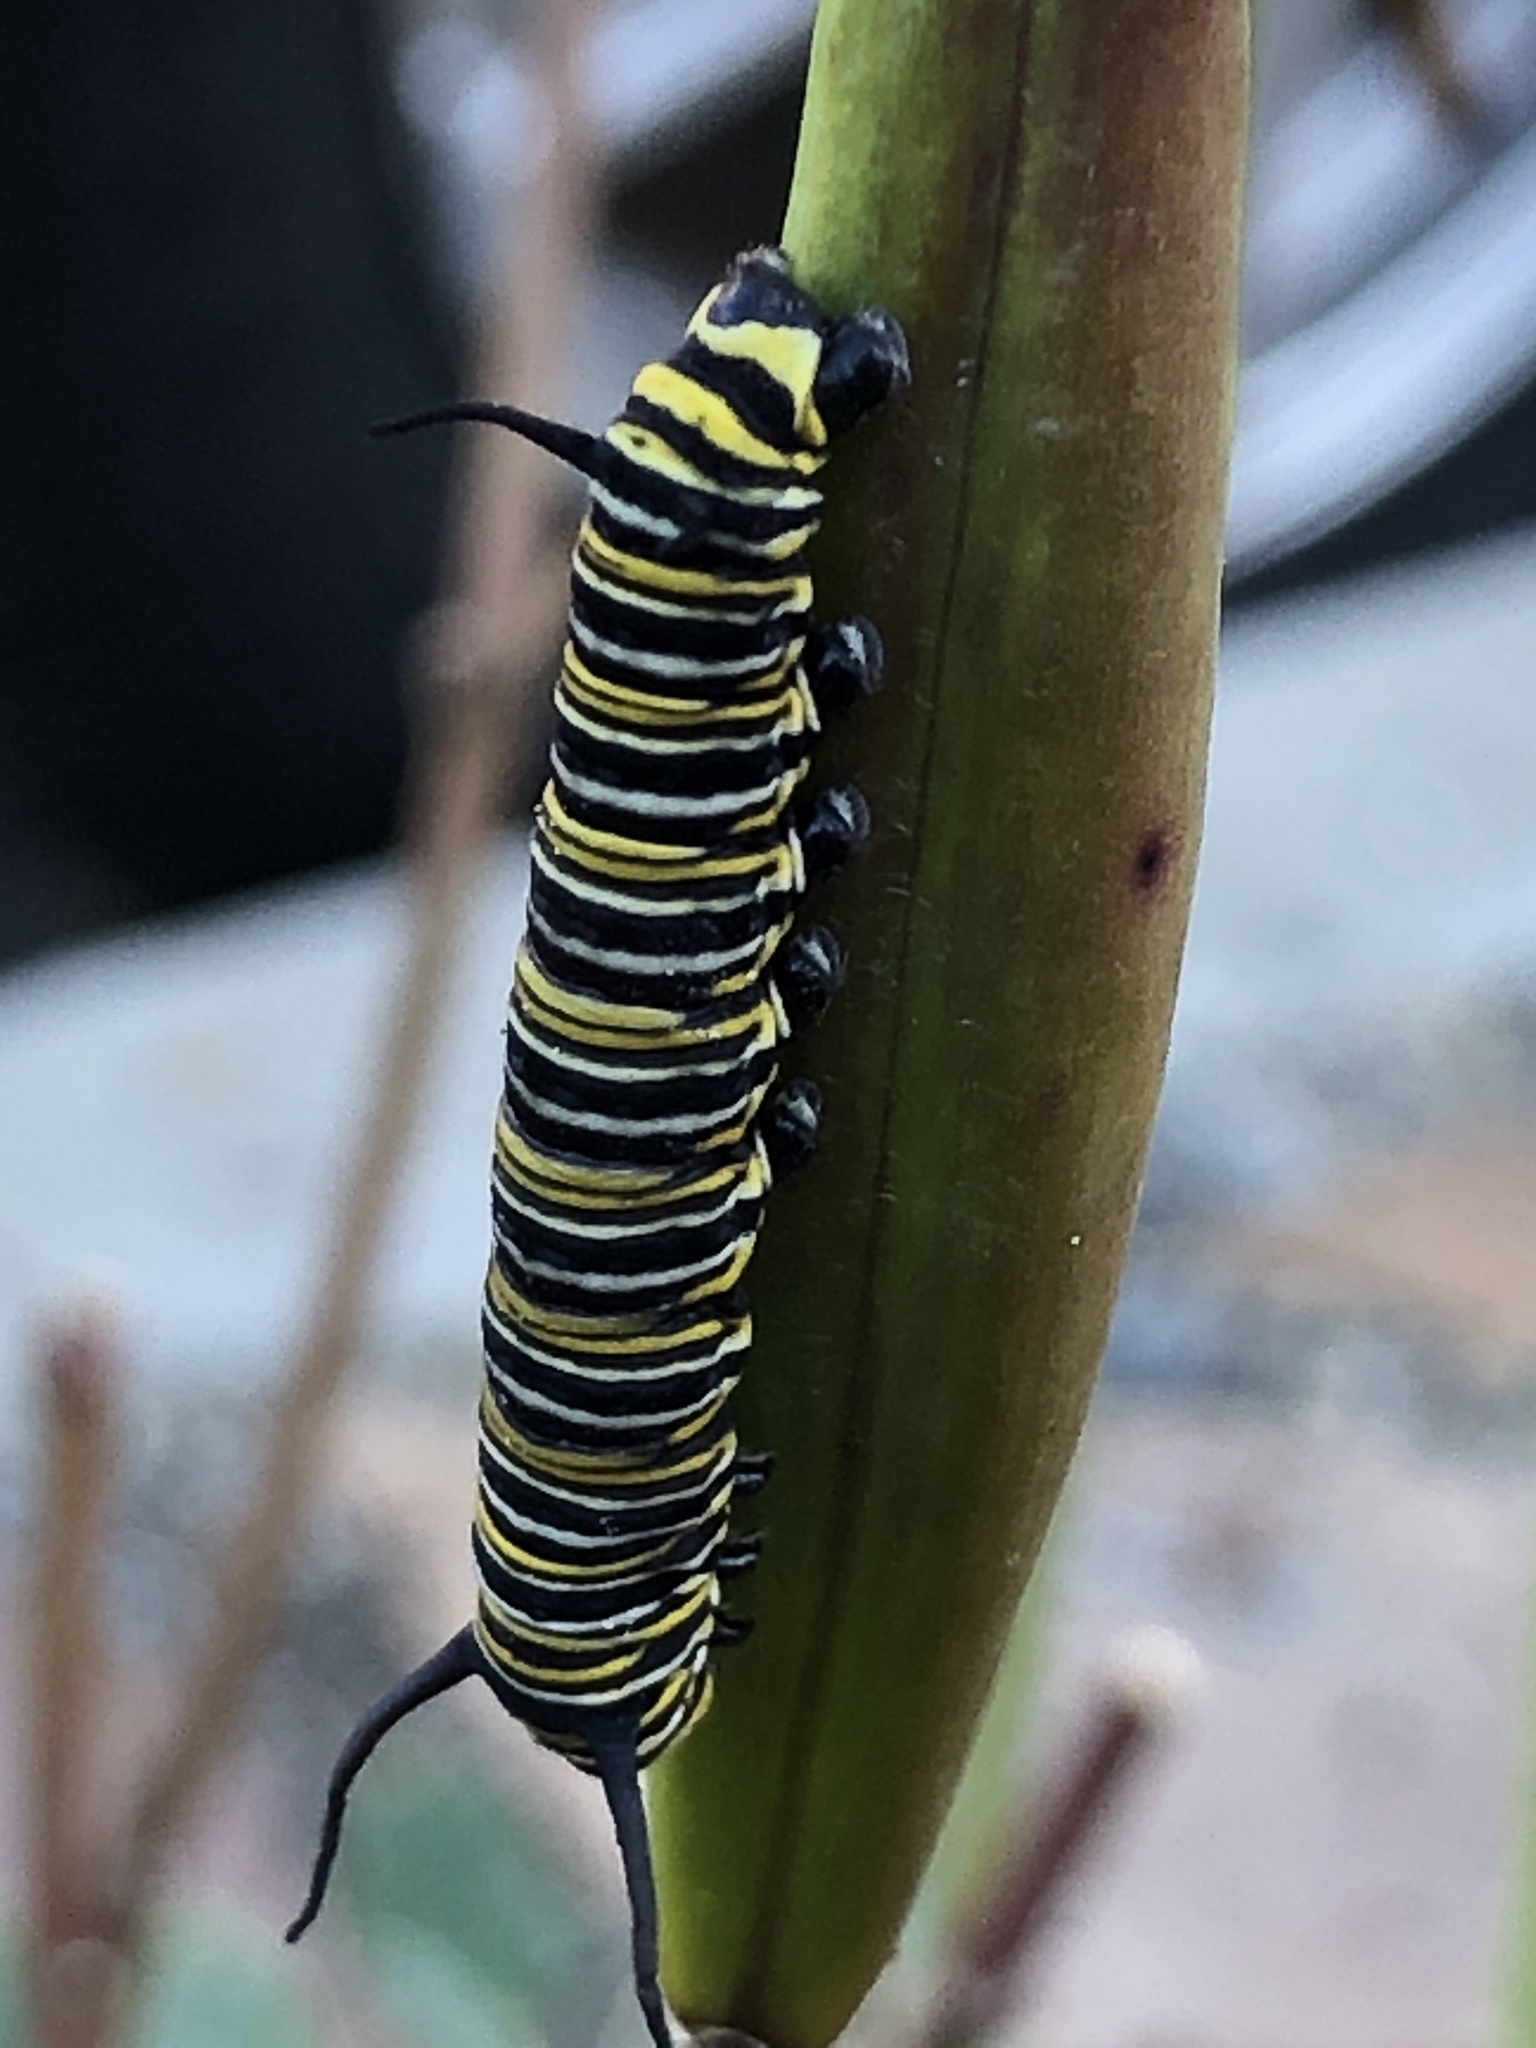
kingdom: Animalia
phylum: Arthropoda
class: Insecta
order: Lepidoptera
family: Nymphalidae
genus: Danaus
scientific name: Danaus plexippus
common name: Monarch
